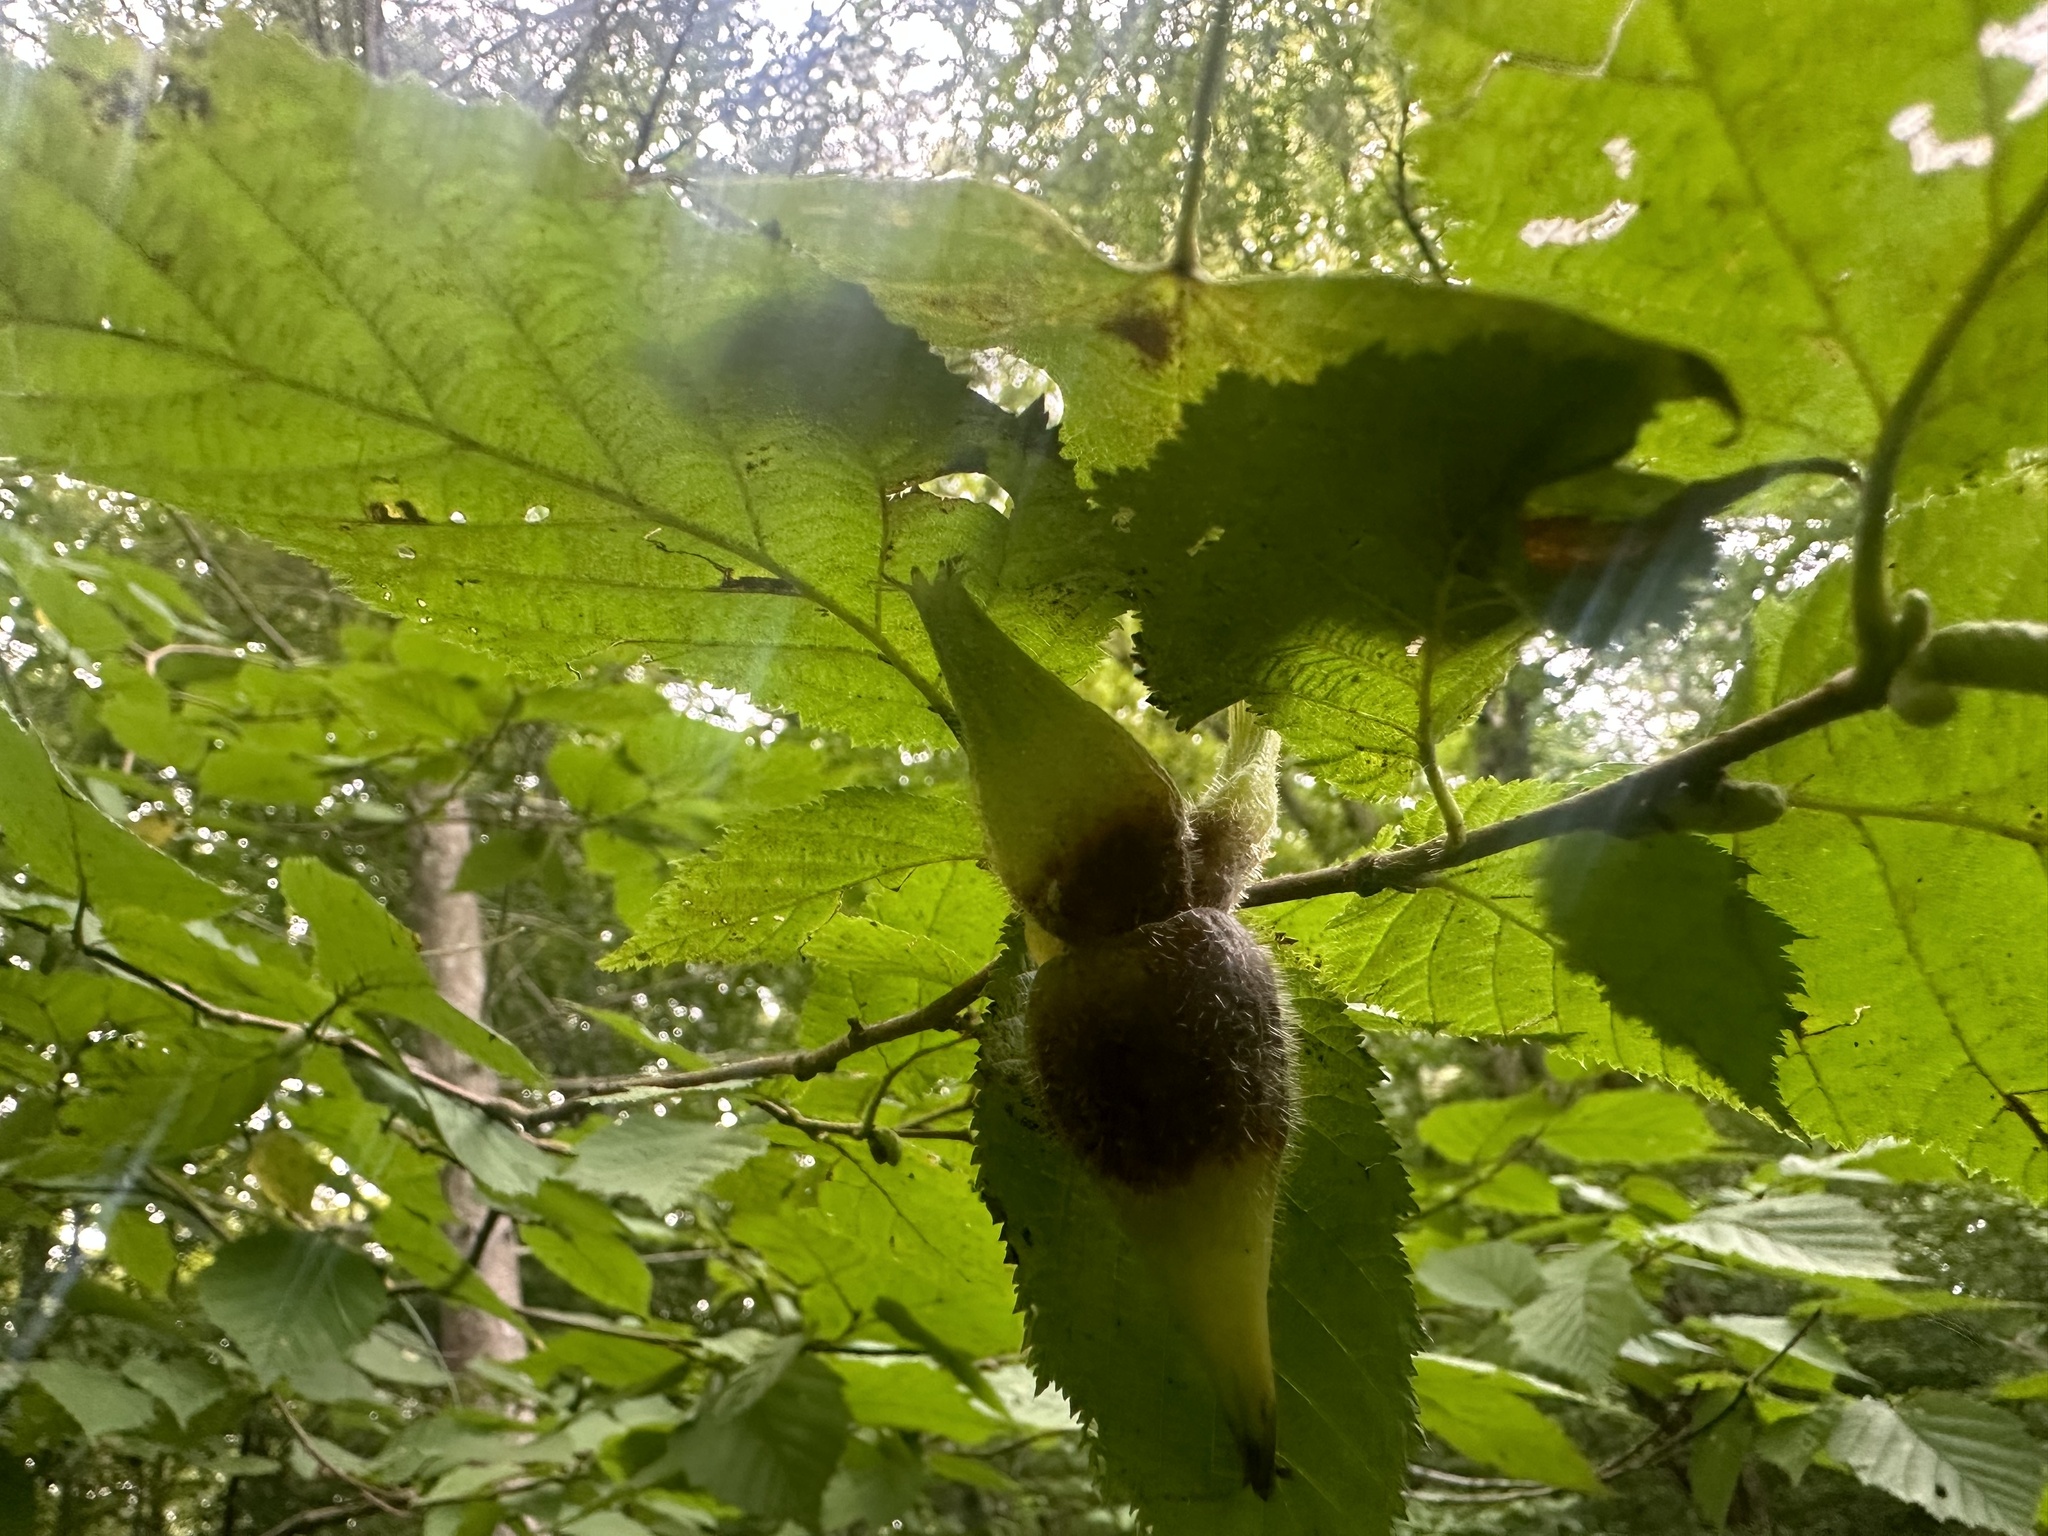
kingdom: Plantae
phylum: Tracheophyta
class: Magnoliopsida
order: Fagales
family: Betulaceae
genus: Corylus
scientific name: Corylus cornuta
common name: Beaked hazel
